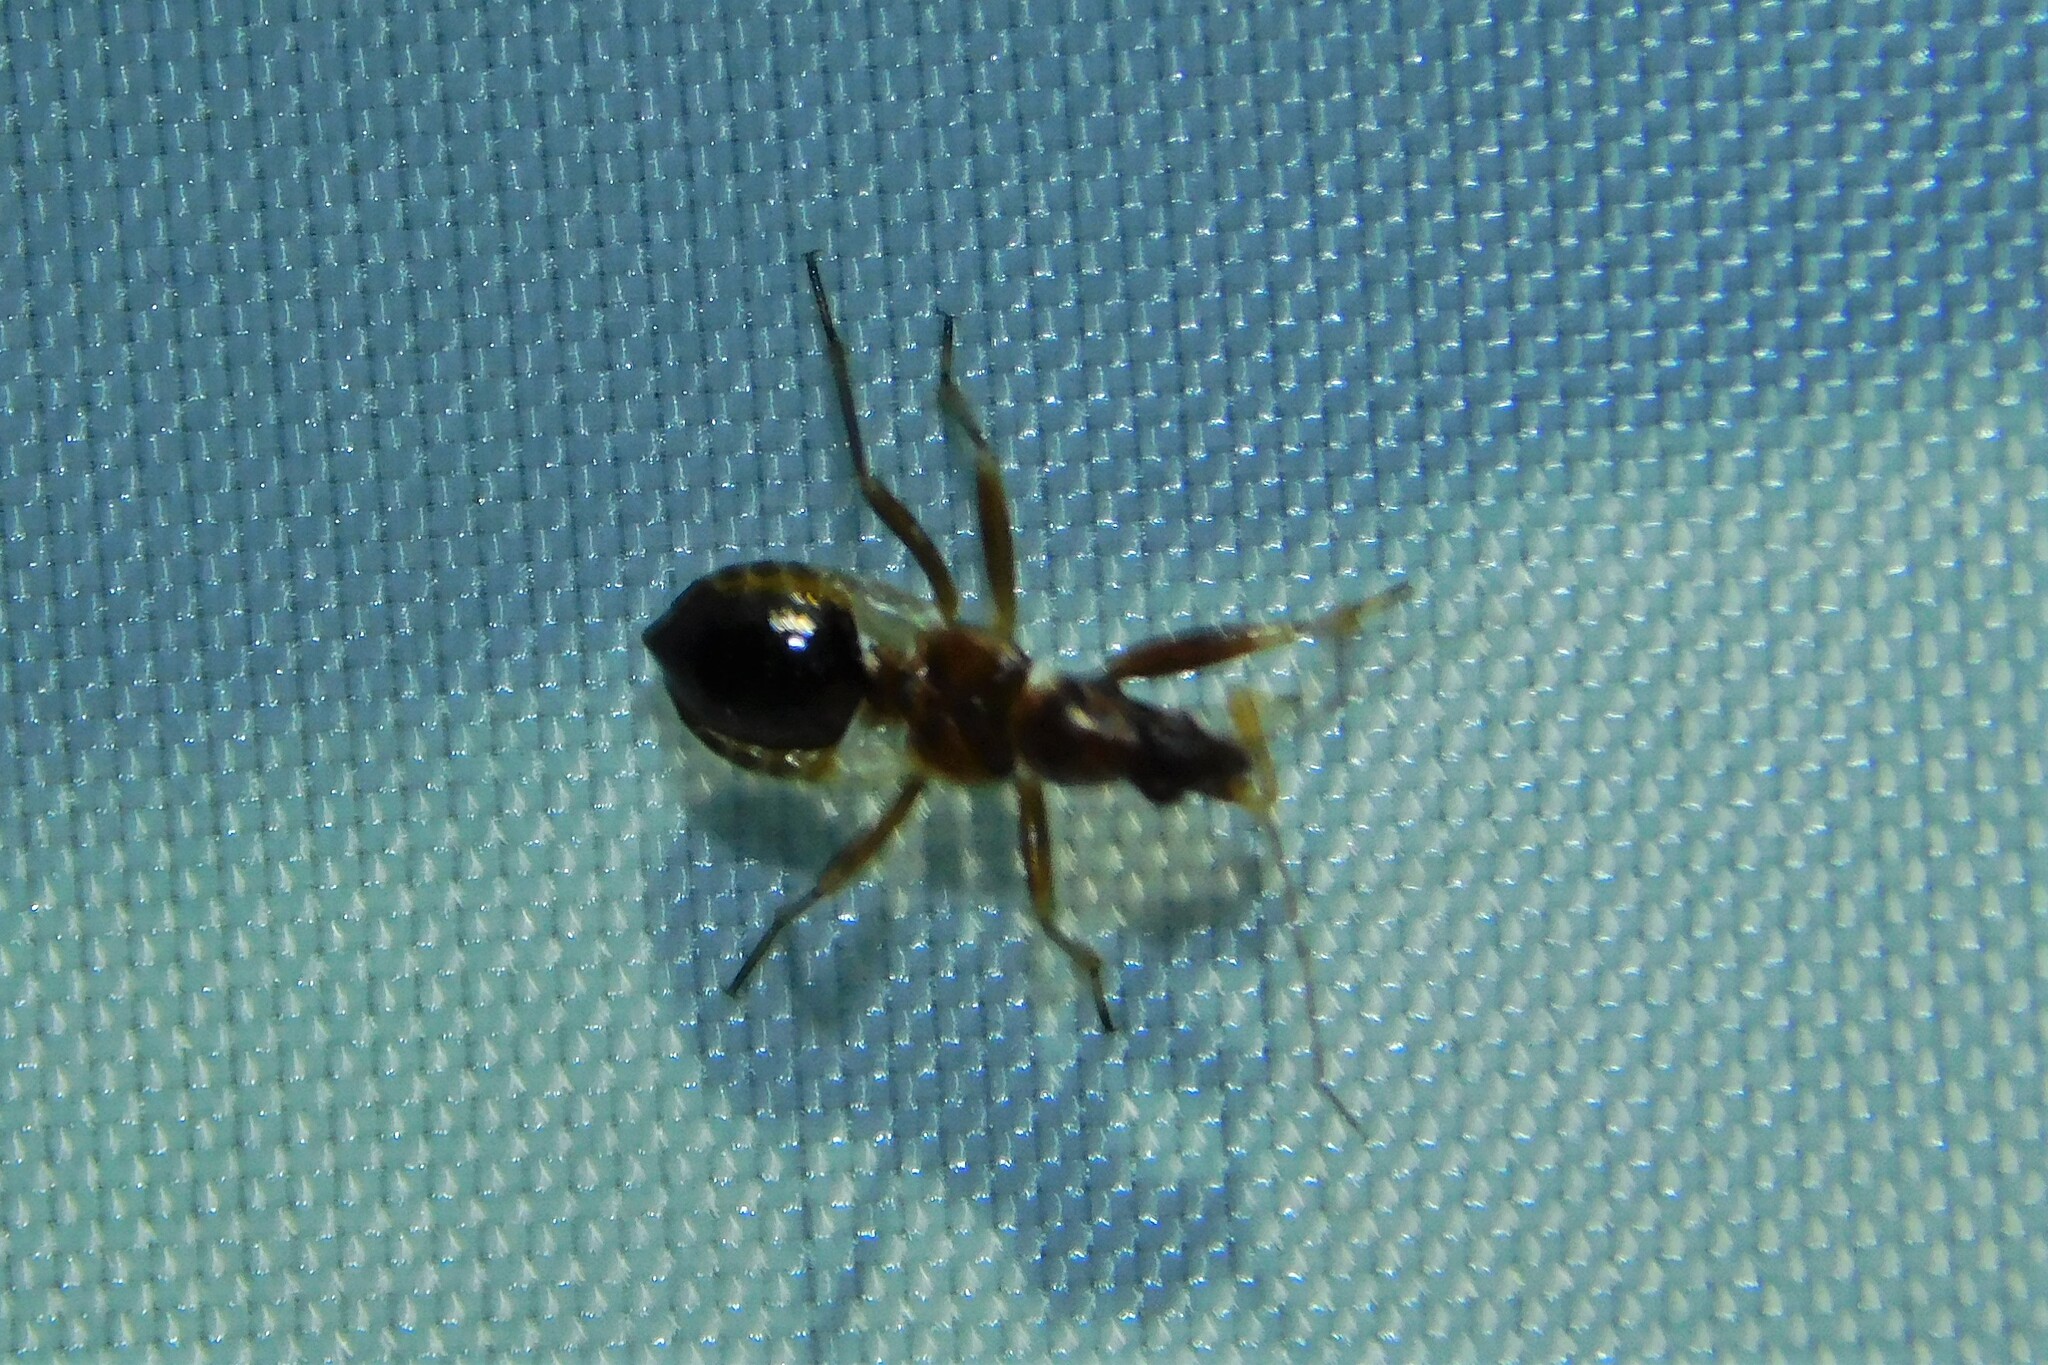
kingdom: Animalia
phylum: Arthropoda
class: Insecta
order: Hemiptera
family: Nabidae
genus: Himacerus
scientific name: Himacerus mirmicoides
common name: Ant damsel bug
